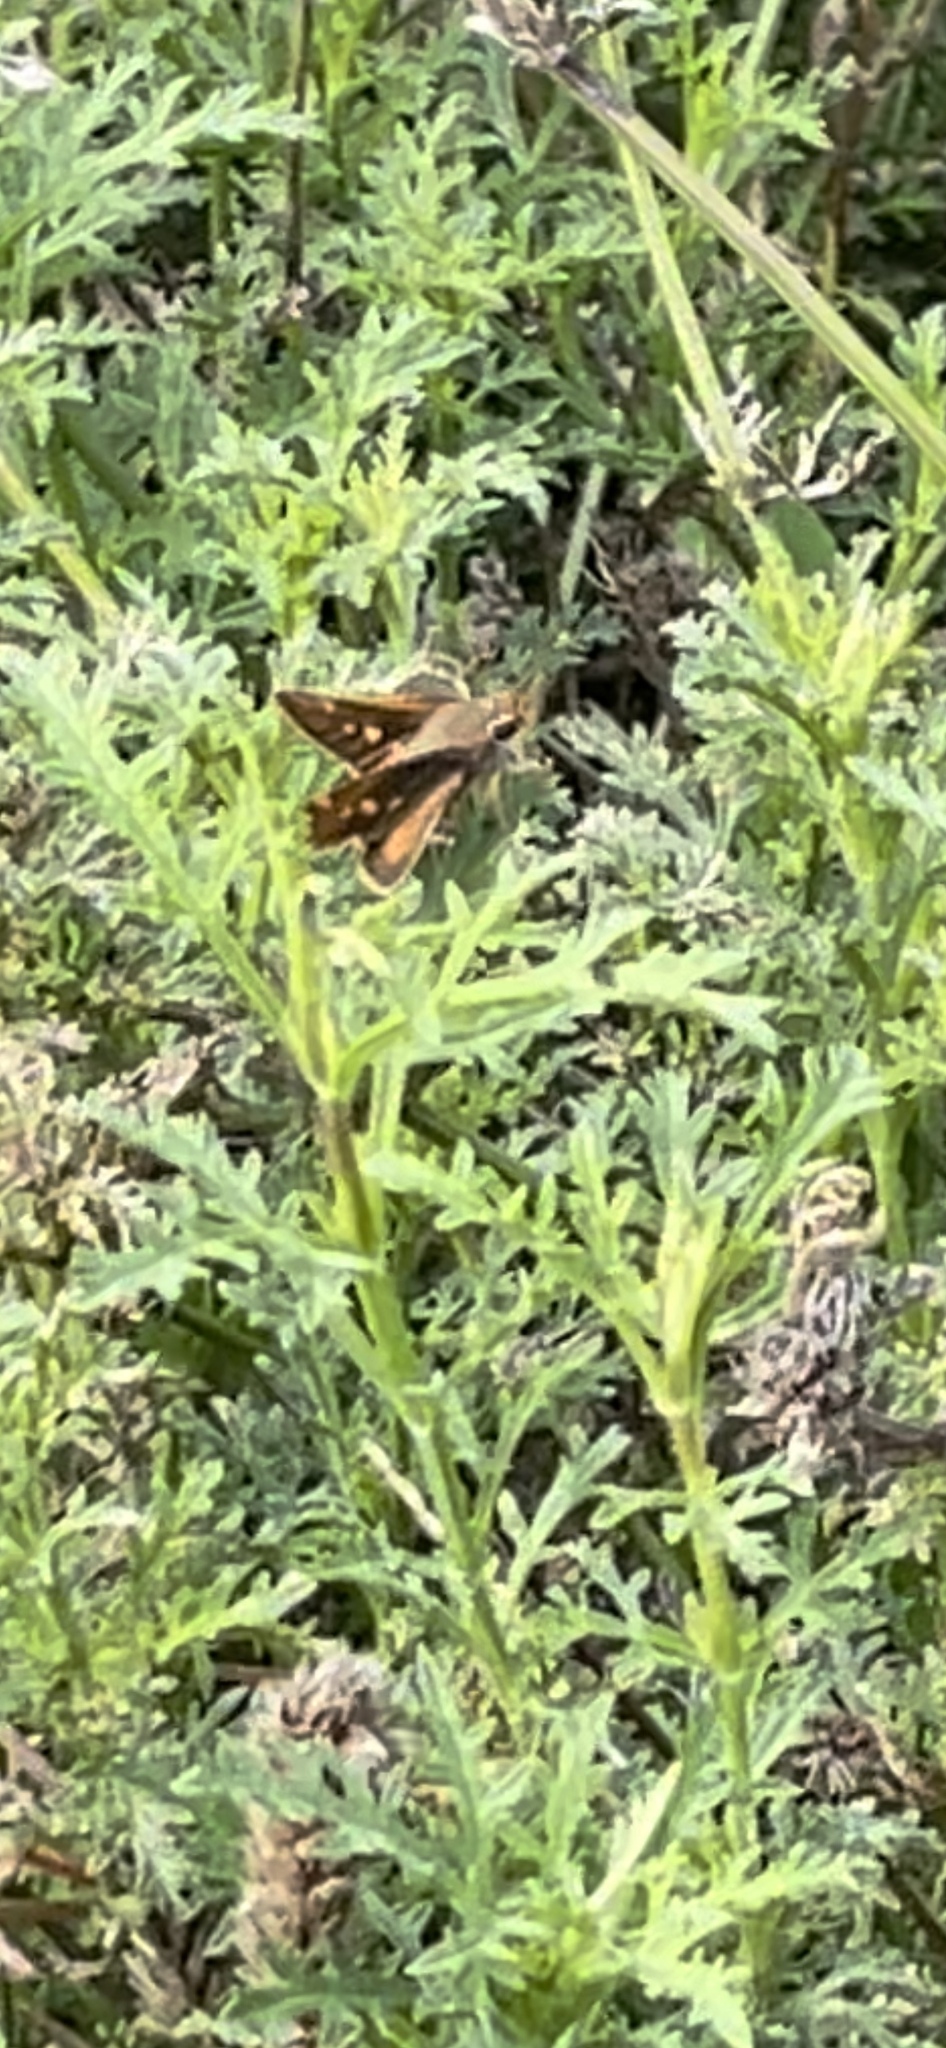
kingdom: Animalia
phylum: Arthropoda
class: Insecta
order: Lepidoptera
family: Hesperiidae
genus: Lon
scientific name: Lon melane
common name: Umber skipper
